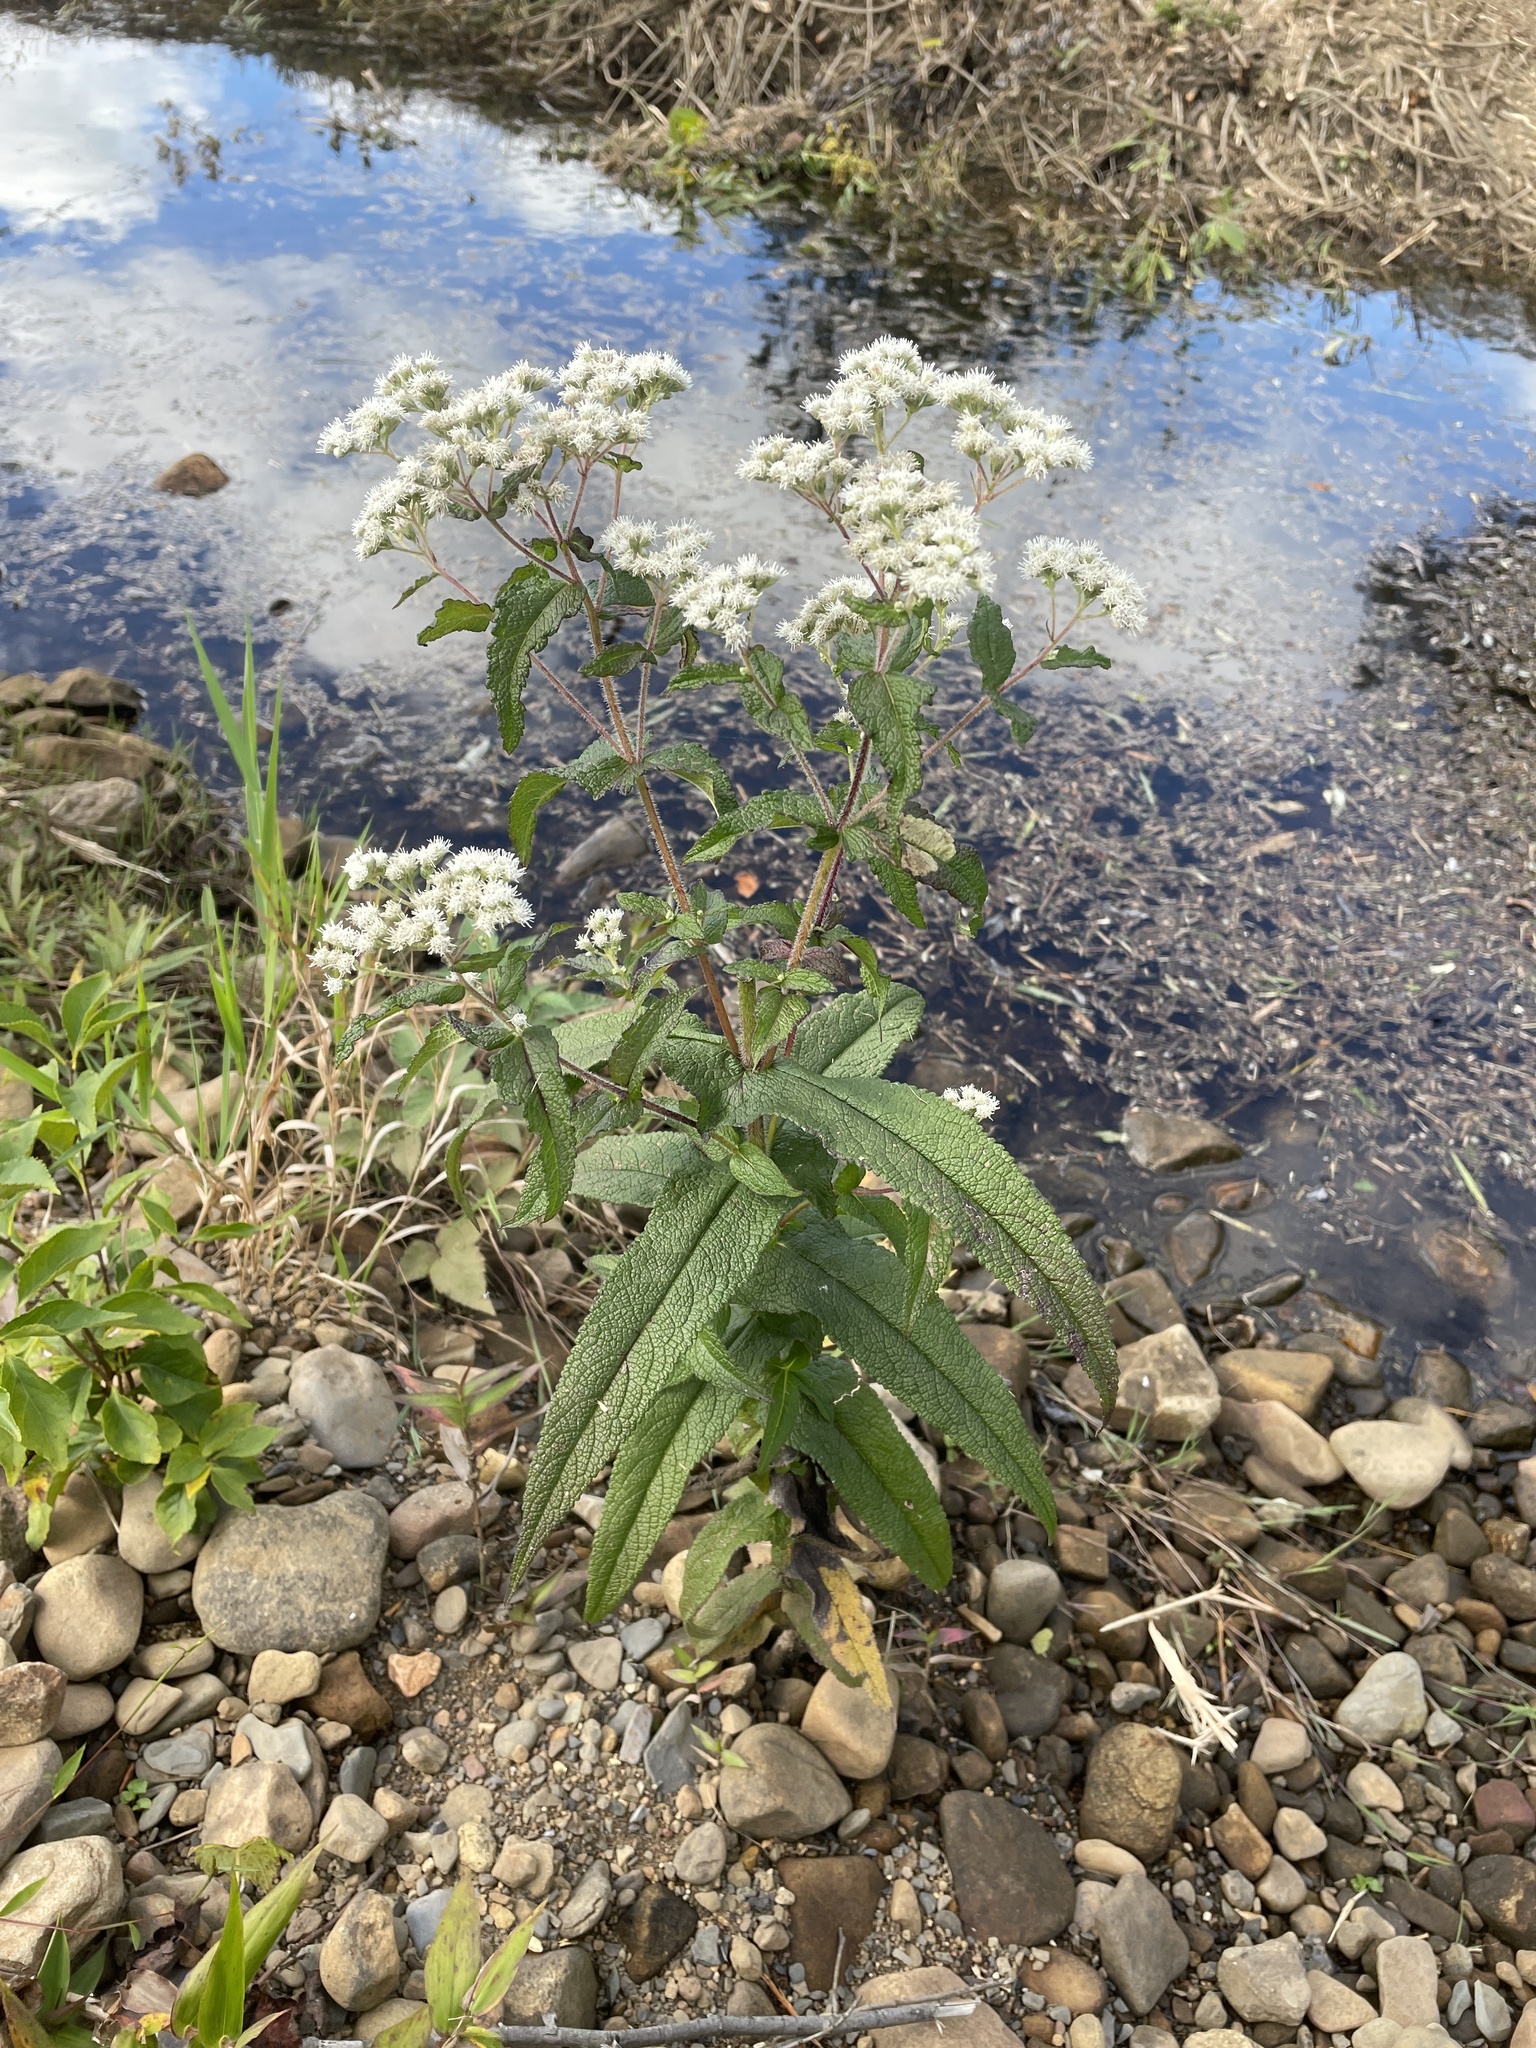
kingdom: Plantae
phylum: Tracheophyta
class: Magnoliopsida
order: Asterales
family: Asteraceae
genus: Eupatorium
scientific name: Eupatorium perfoliatum
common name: Boneset
